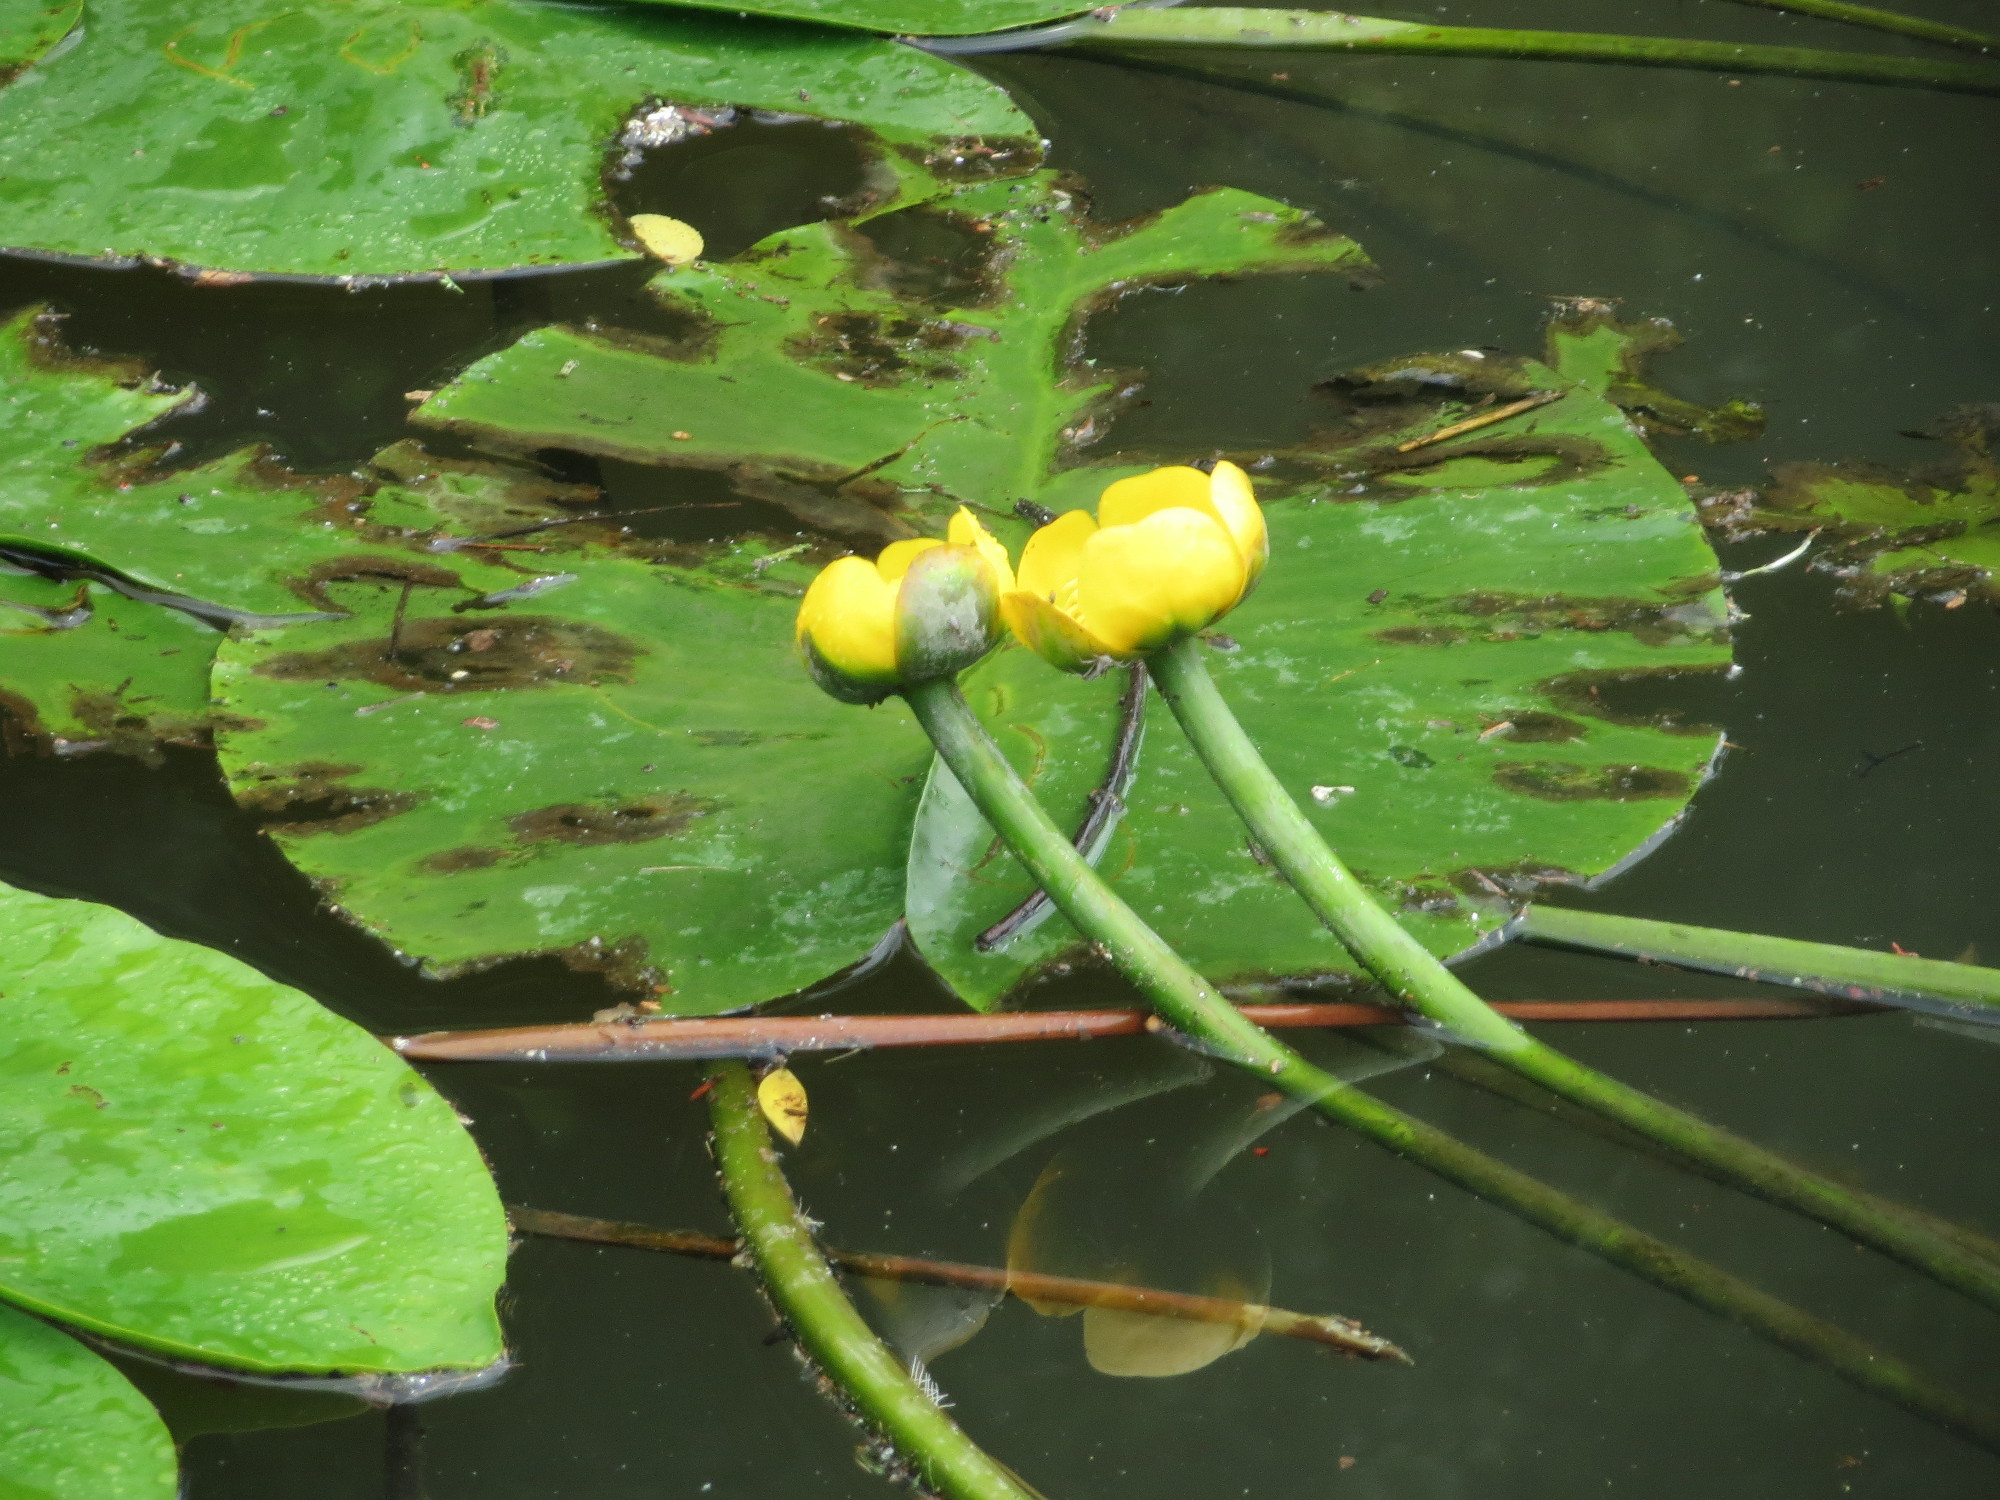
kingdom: Plantae
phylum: Tracheophyta
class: Magnoliopsida
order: Nymphaeales
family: Nymphaeaceae
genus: Nuphar
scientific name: Nuphar lutea
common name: Yellow water-lily
